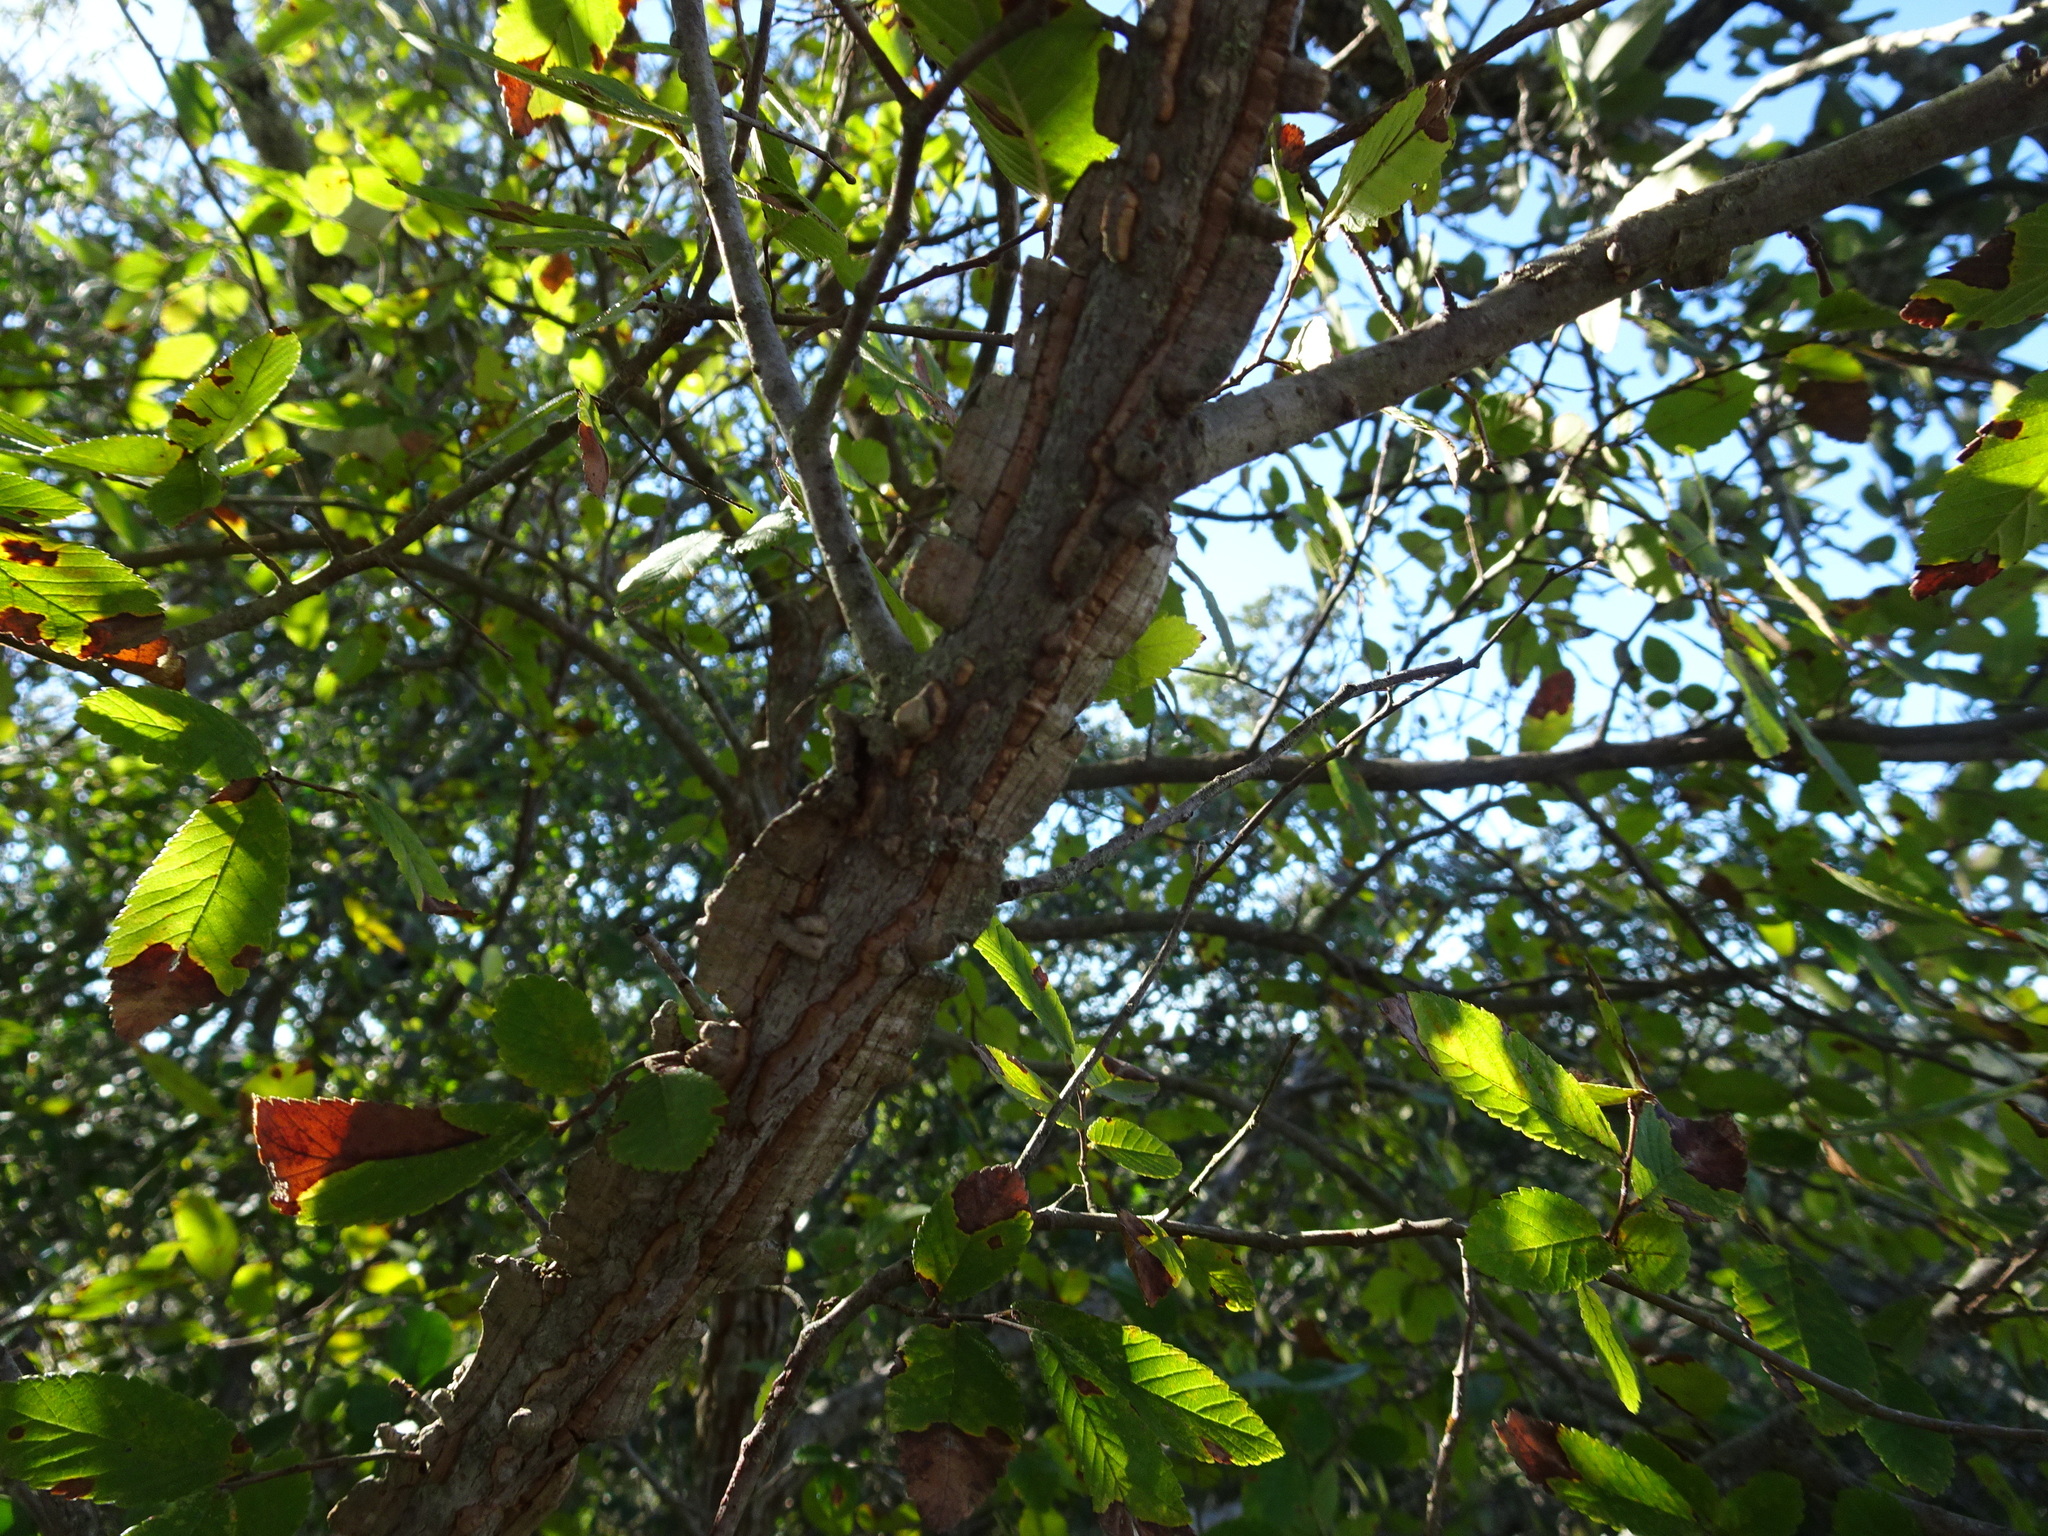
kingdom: Plantae
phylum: Tracheophyta
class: Magnoliopsida
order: Rosales
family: Ulmaceae
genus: Ulmus
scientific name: Ulmus crassifolia
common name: Basket elm
